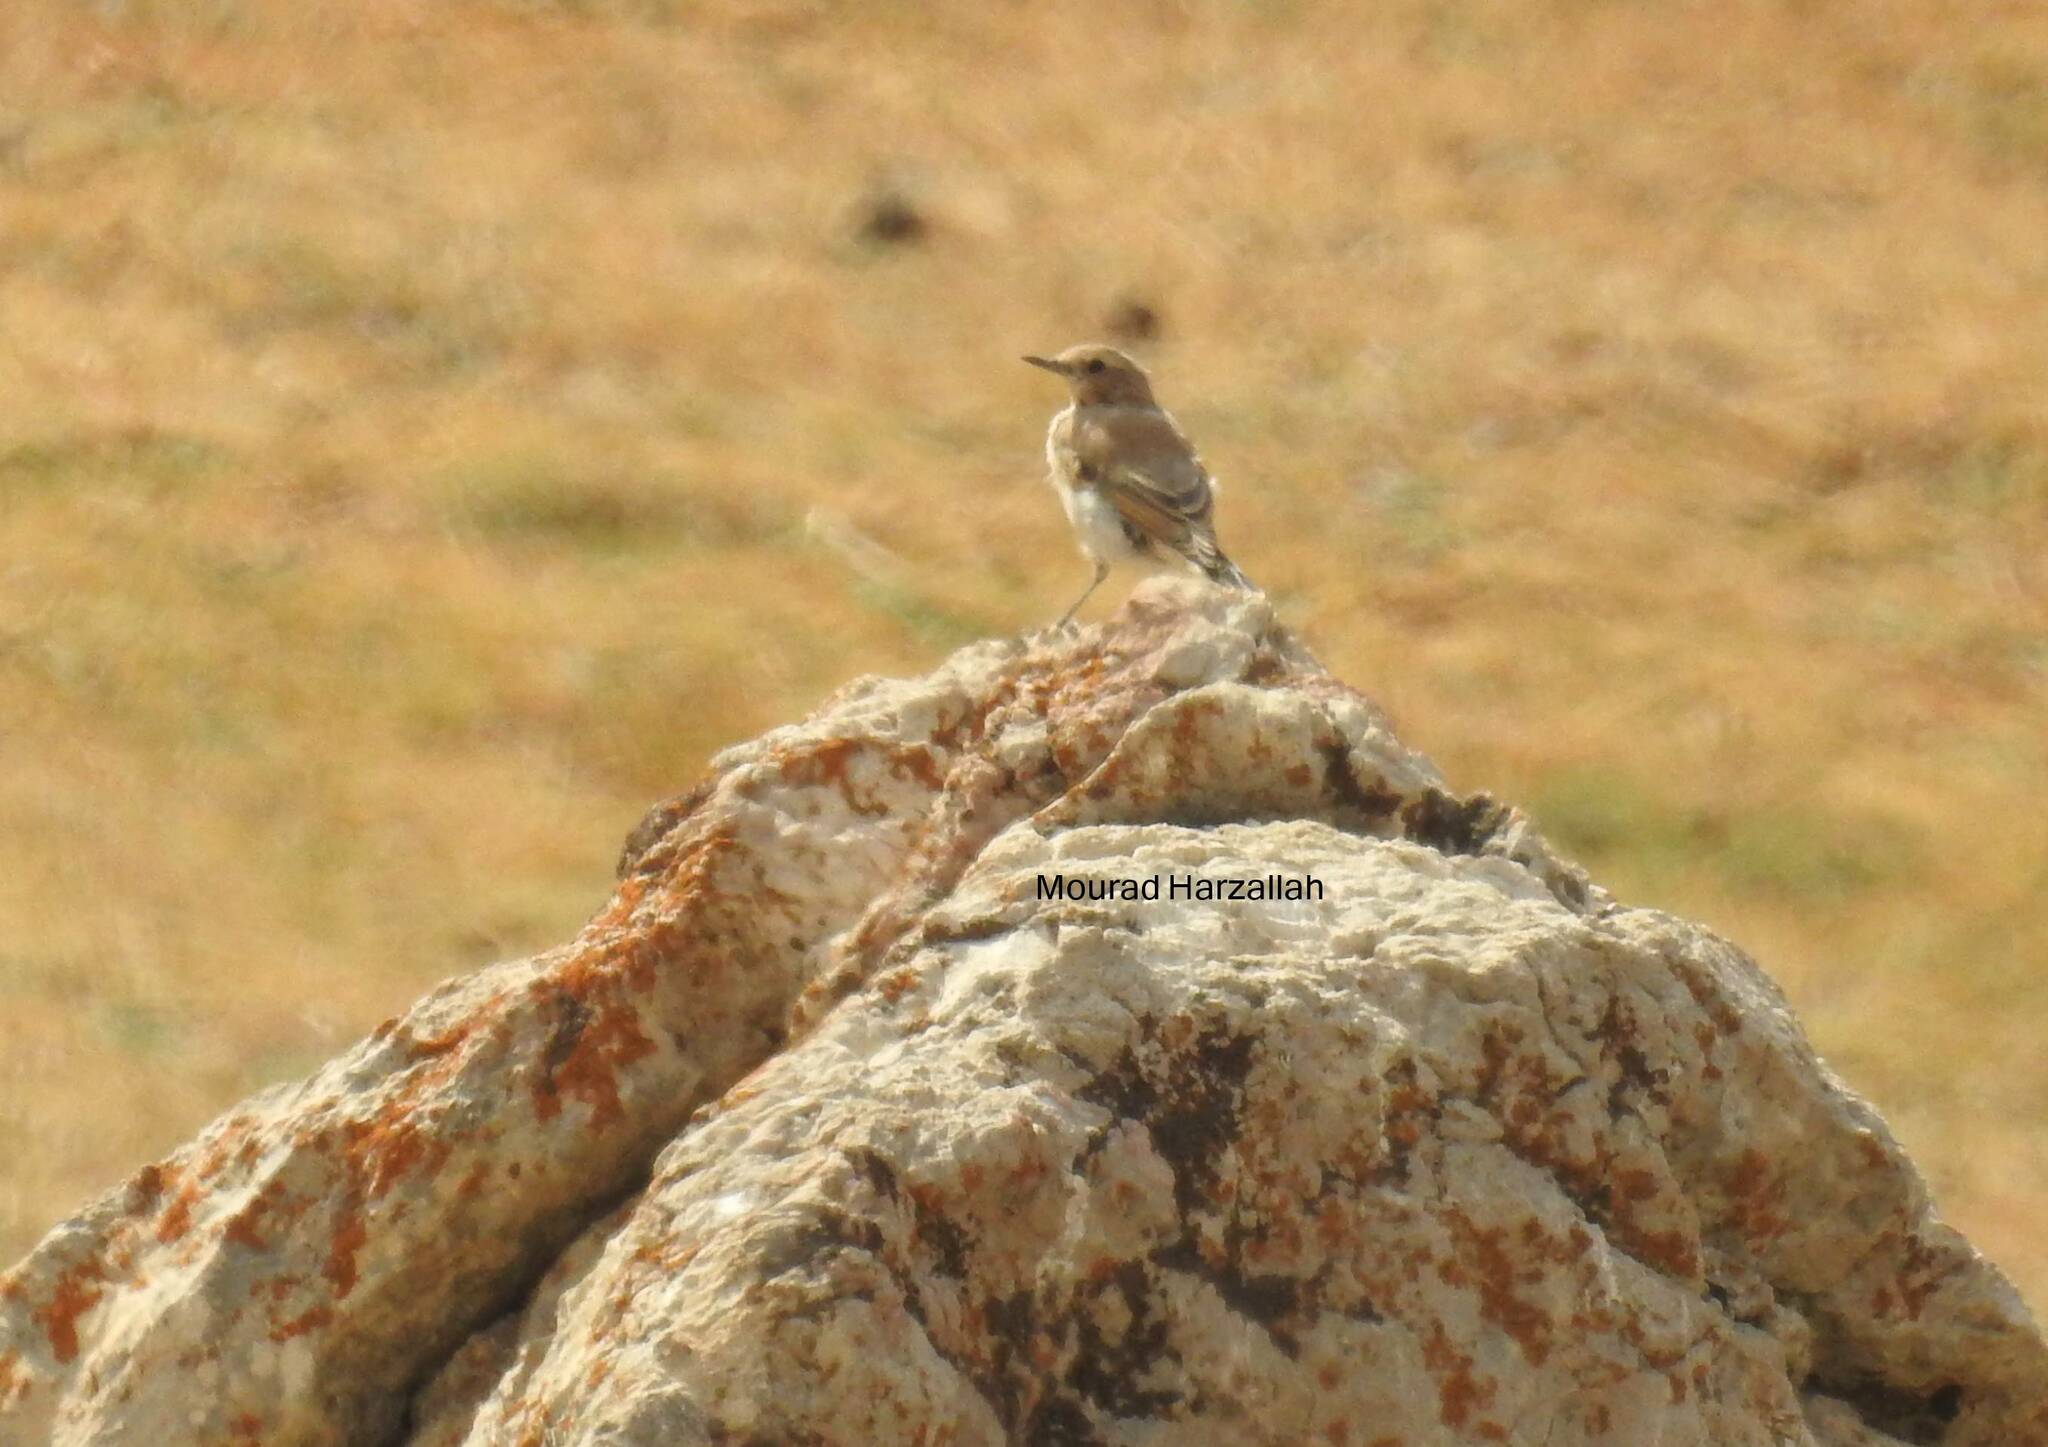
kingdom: Animalia
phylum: Chordata
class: Aves
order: Passeriformes
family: Muscicapidae
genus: Oenanthe
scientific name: Oenanthe oenanthe
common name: Northern wheatear
